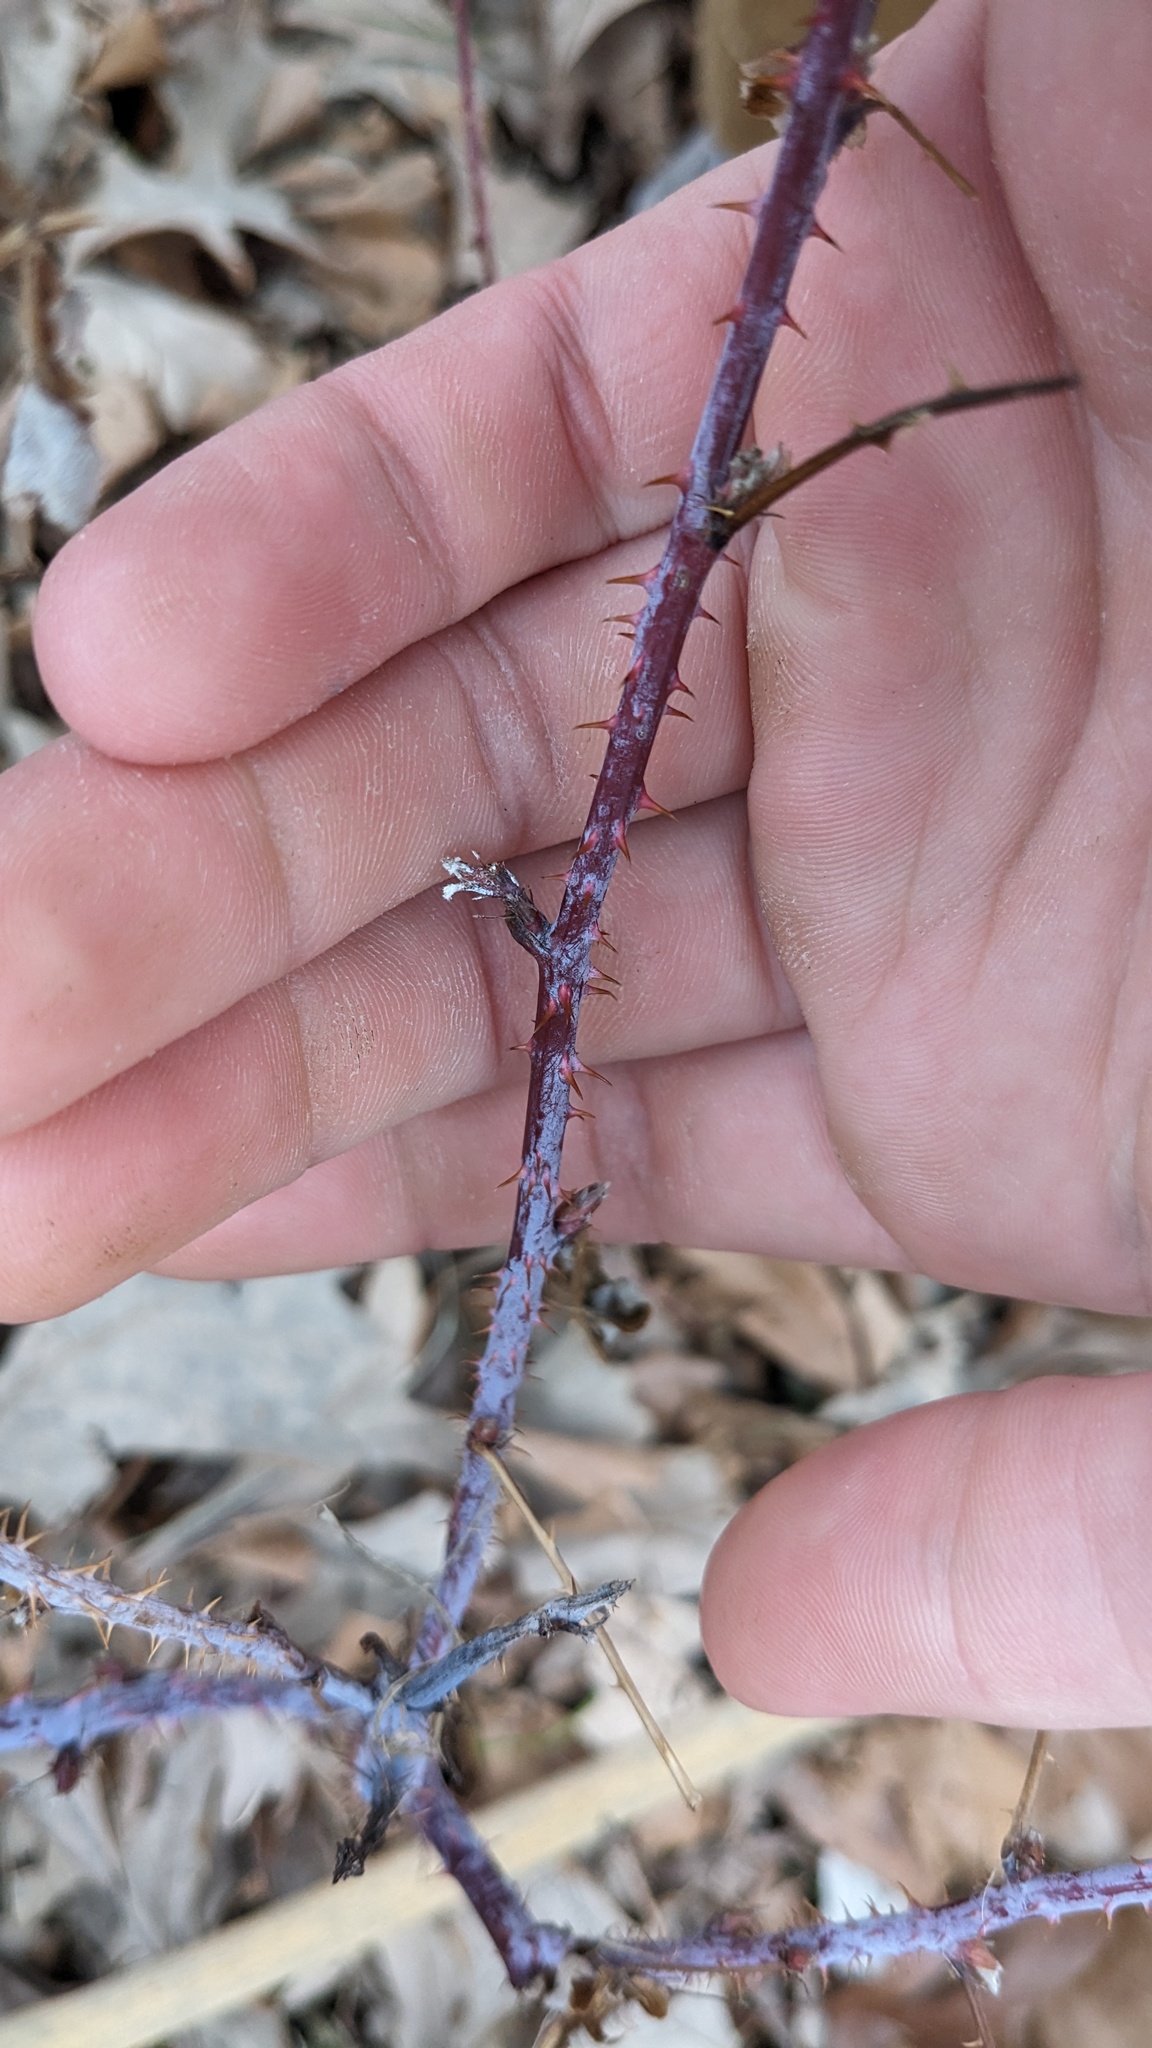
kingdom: Plantae
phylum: Tracheophyta
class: Magnoliopsida
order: Rosales
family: Rosaceae
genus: Rubus
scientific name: Rubus occidentalis
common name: Black raspberry
